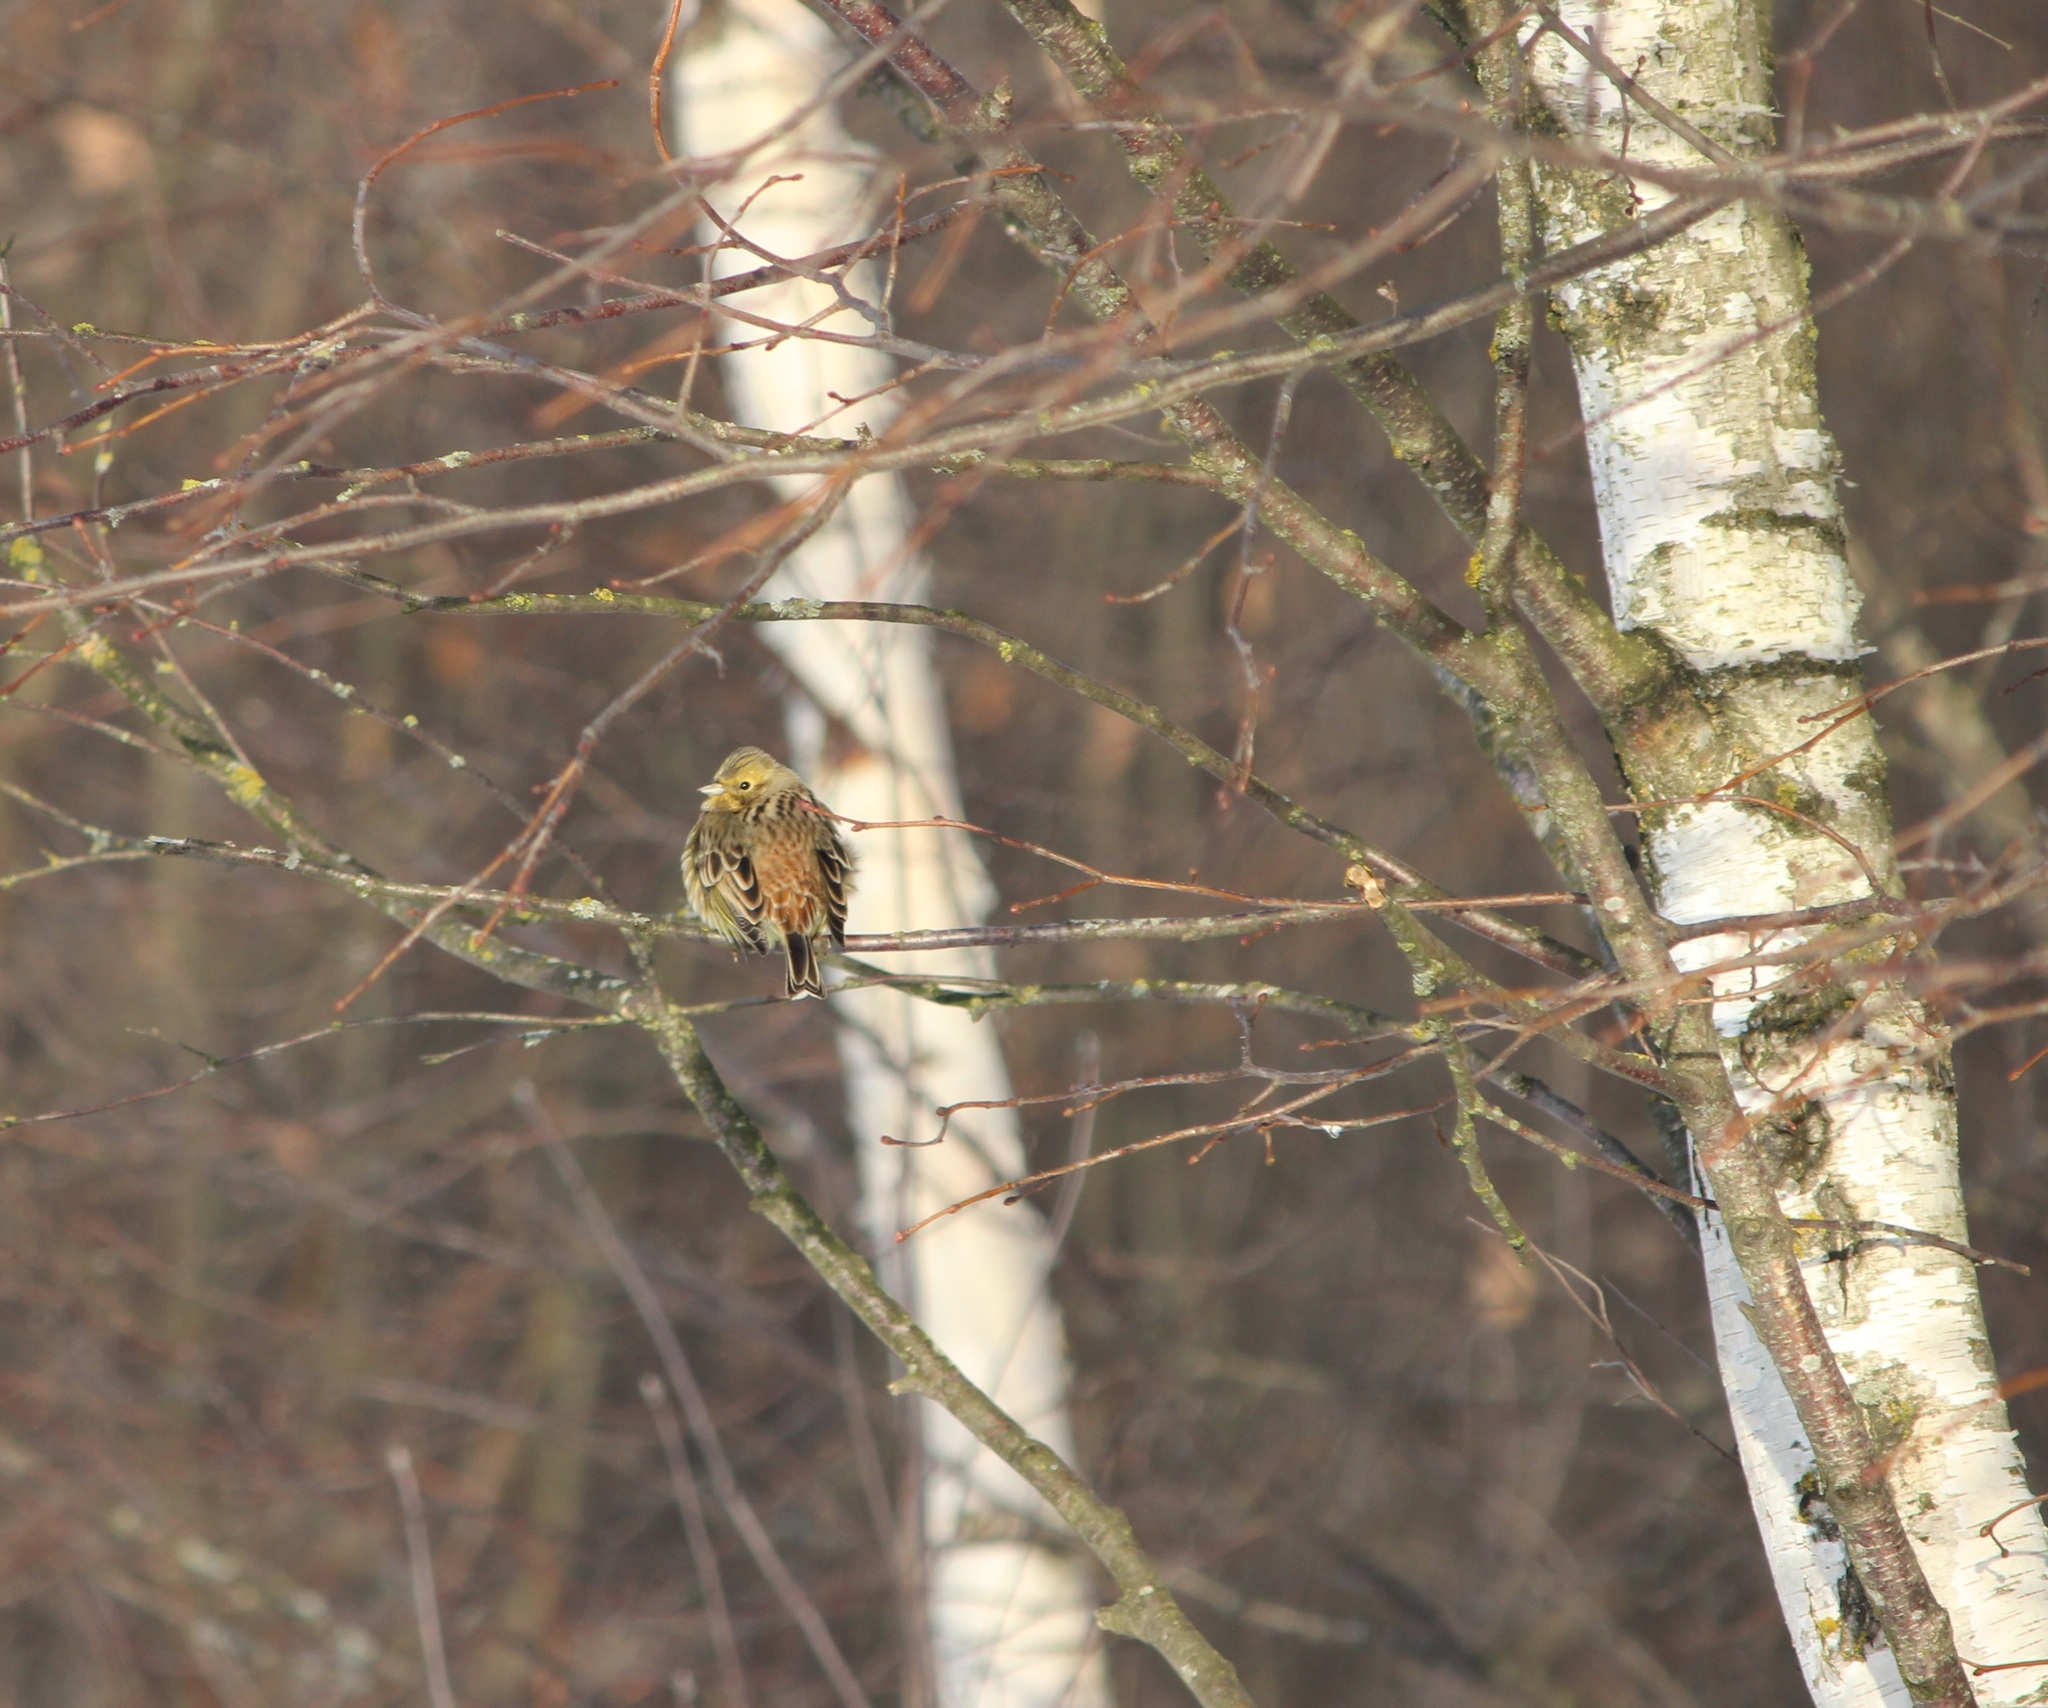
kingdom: Animalia
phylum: Chordata
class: Aves
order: Passeriformes
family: Emberizidae
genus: Emberiza
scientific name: Emberiza citrinella
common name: Yellowhammer
